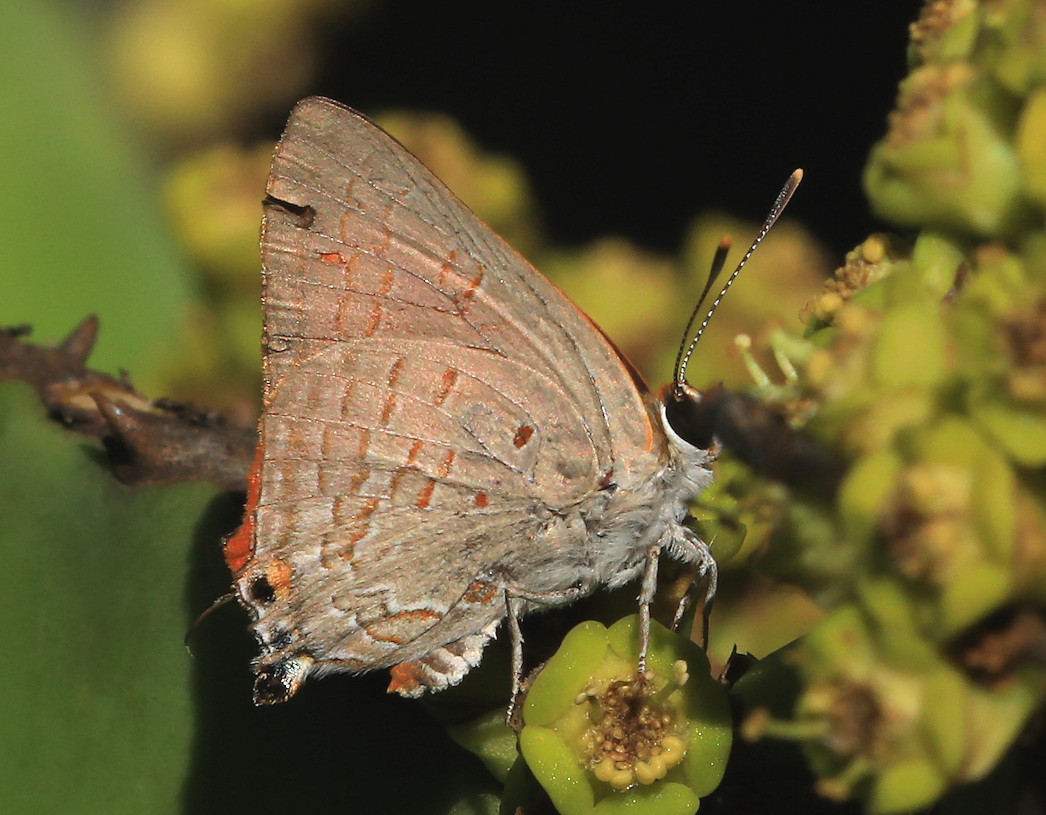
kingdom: Animalia
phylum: Arthropoda
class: Insecta
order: Lepidoptera
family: Lycaenidae
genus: Deudorix
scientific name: Deudorix dinochares
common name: Apricot playboy
